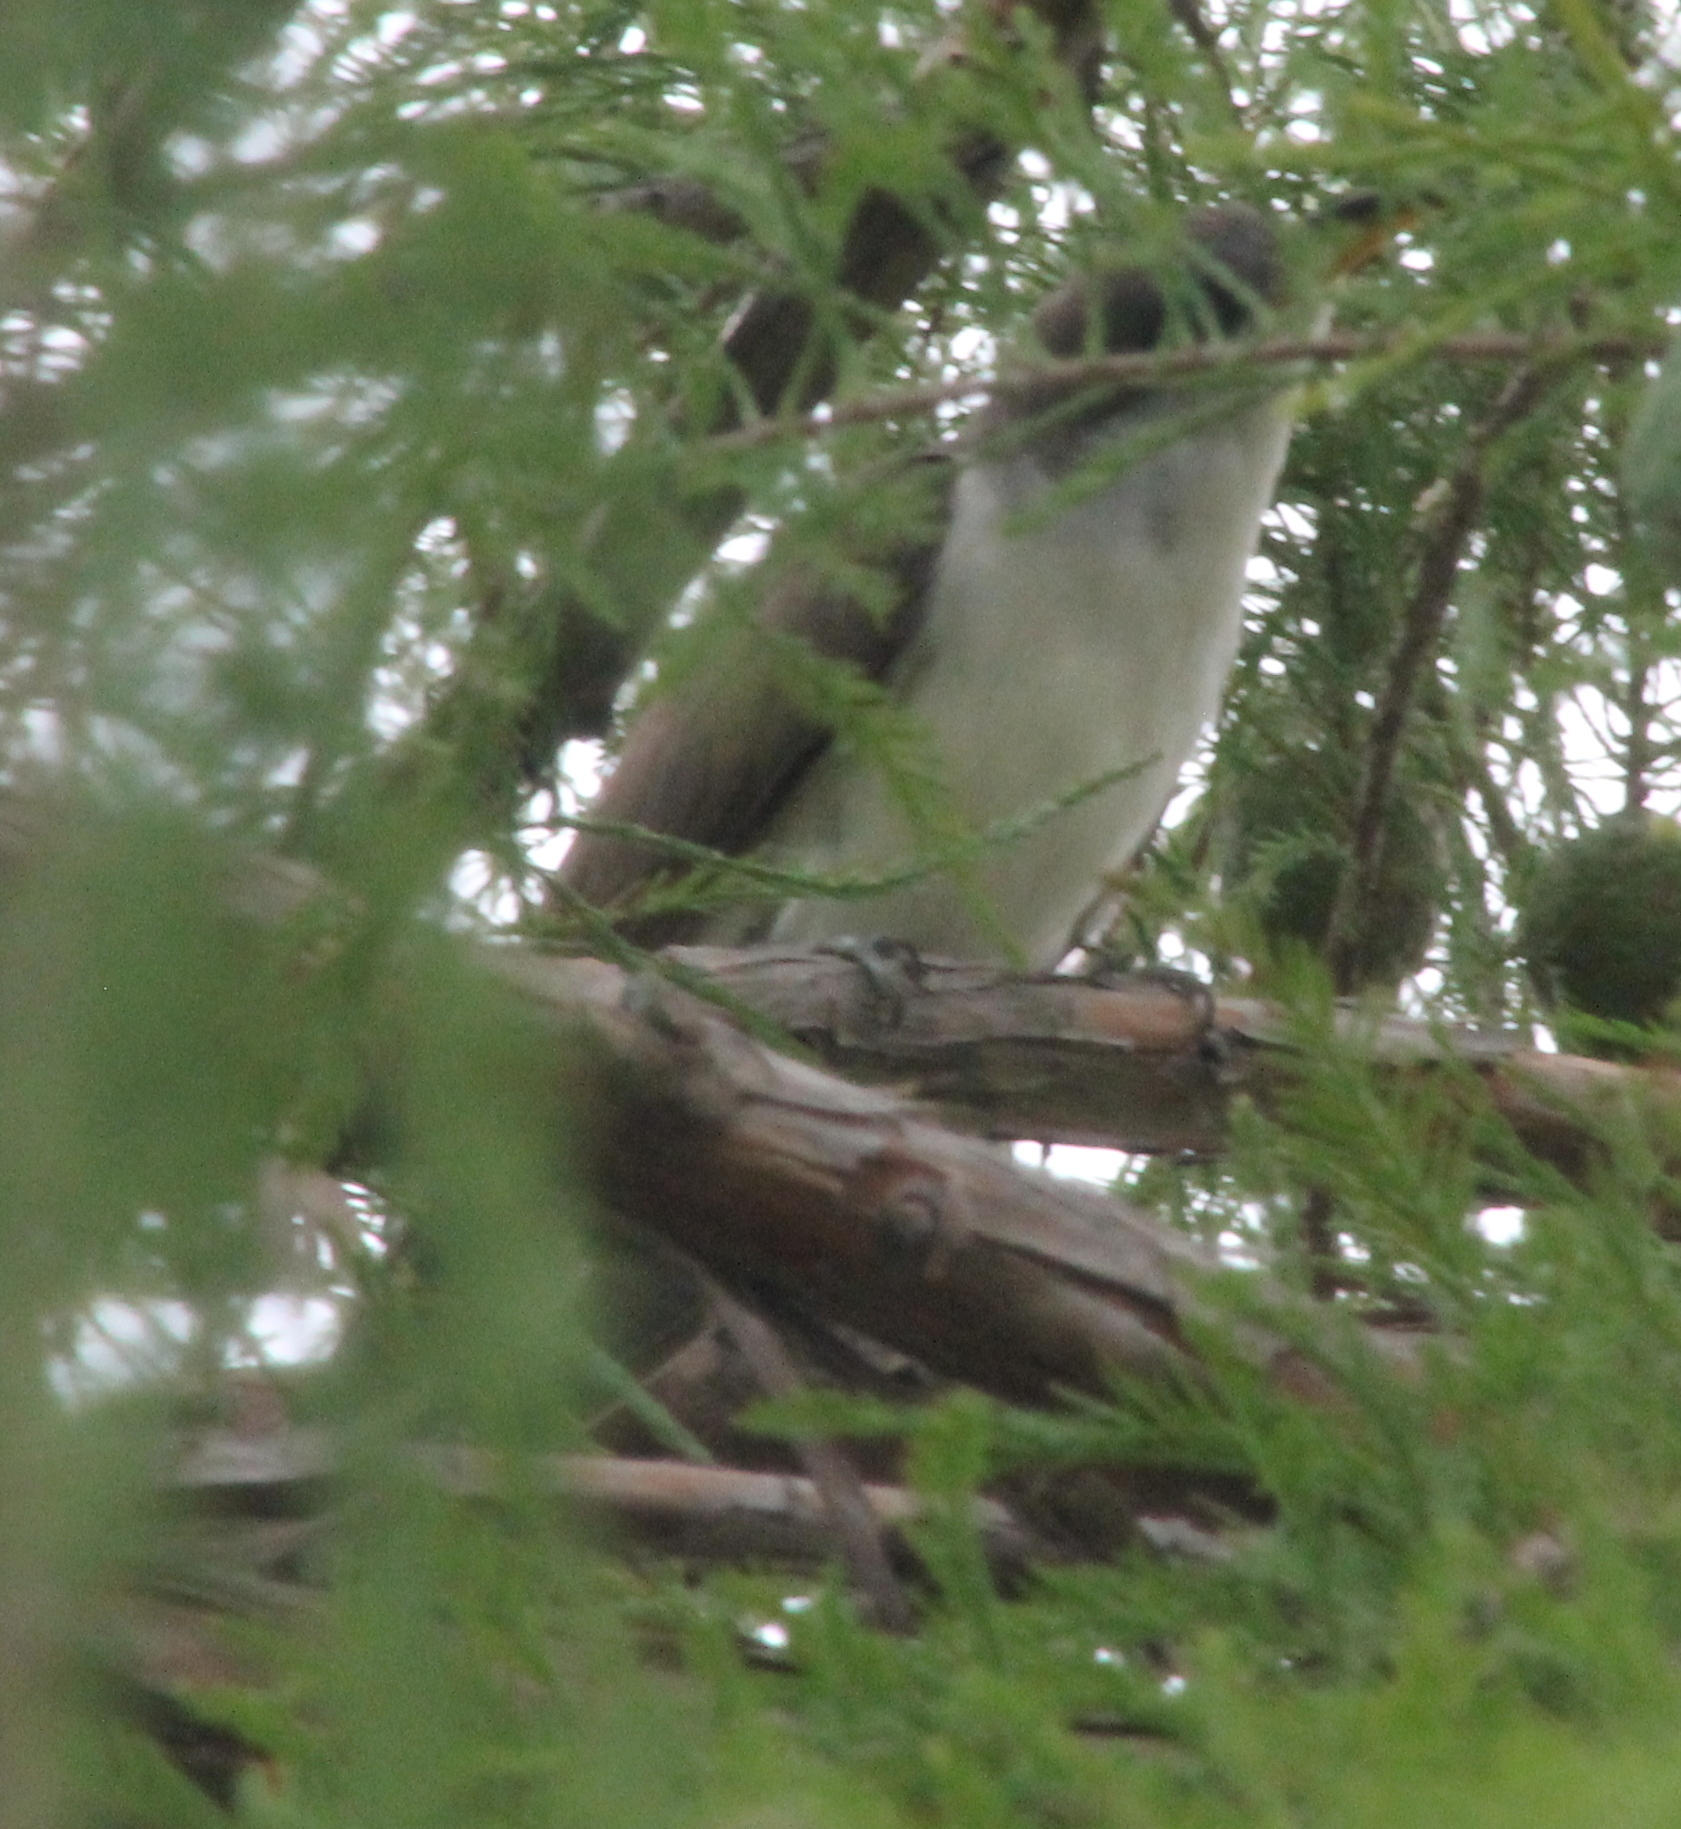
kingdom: Animalia
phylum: Chordata
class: Aves
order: Cuculiformes
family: Cuculidae
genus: Coccyzus
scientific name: Coccyzus americanus
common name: Yellow-billed cuckoo
